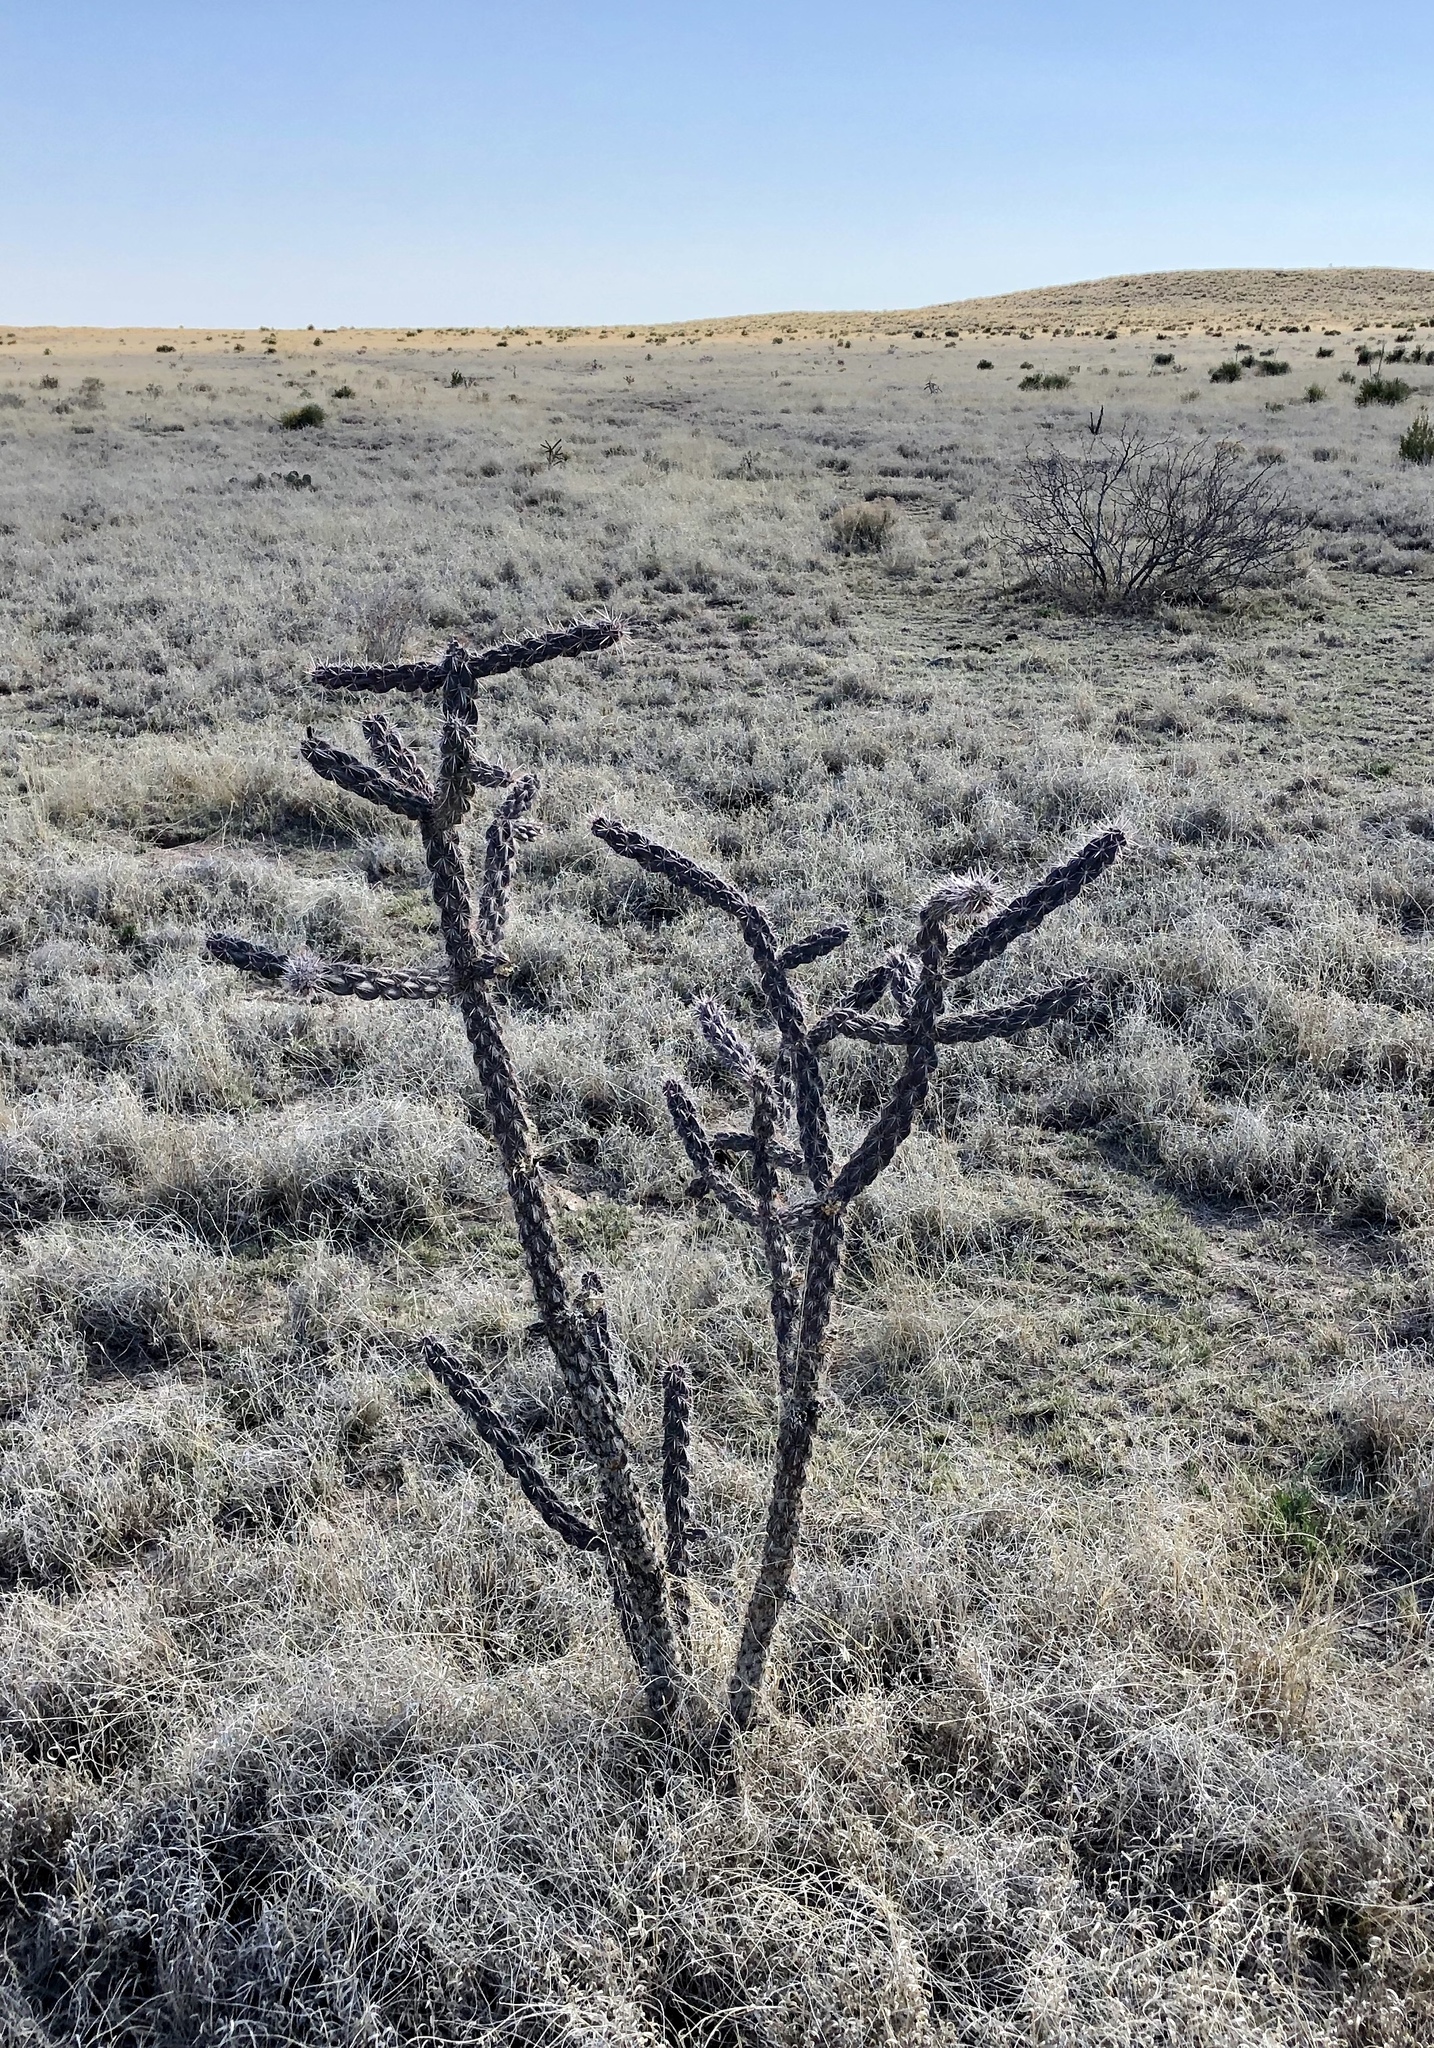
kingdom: Plantae
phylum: Tracheophyta
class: Magnoliopsida
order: Caryophyllales
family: Cactaceae
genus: Cylindropuntia
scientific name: Cylindropuntia imbricata
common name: Candelabrum cactus
